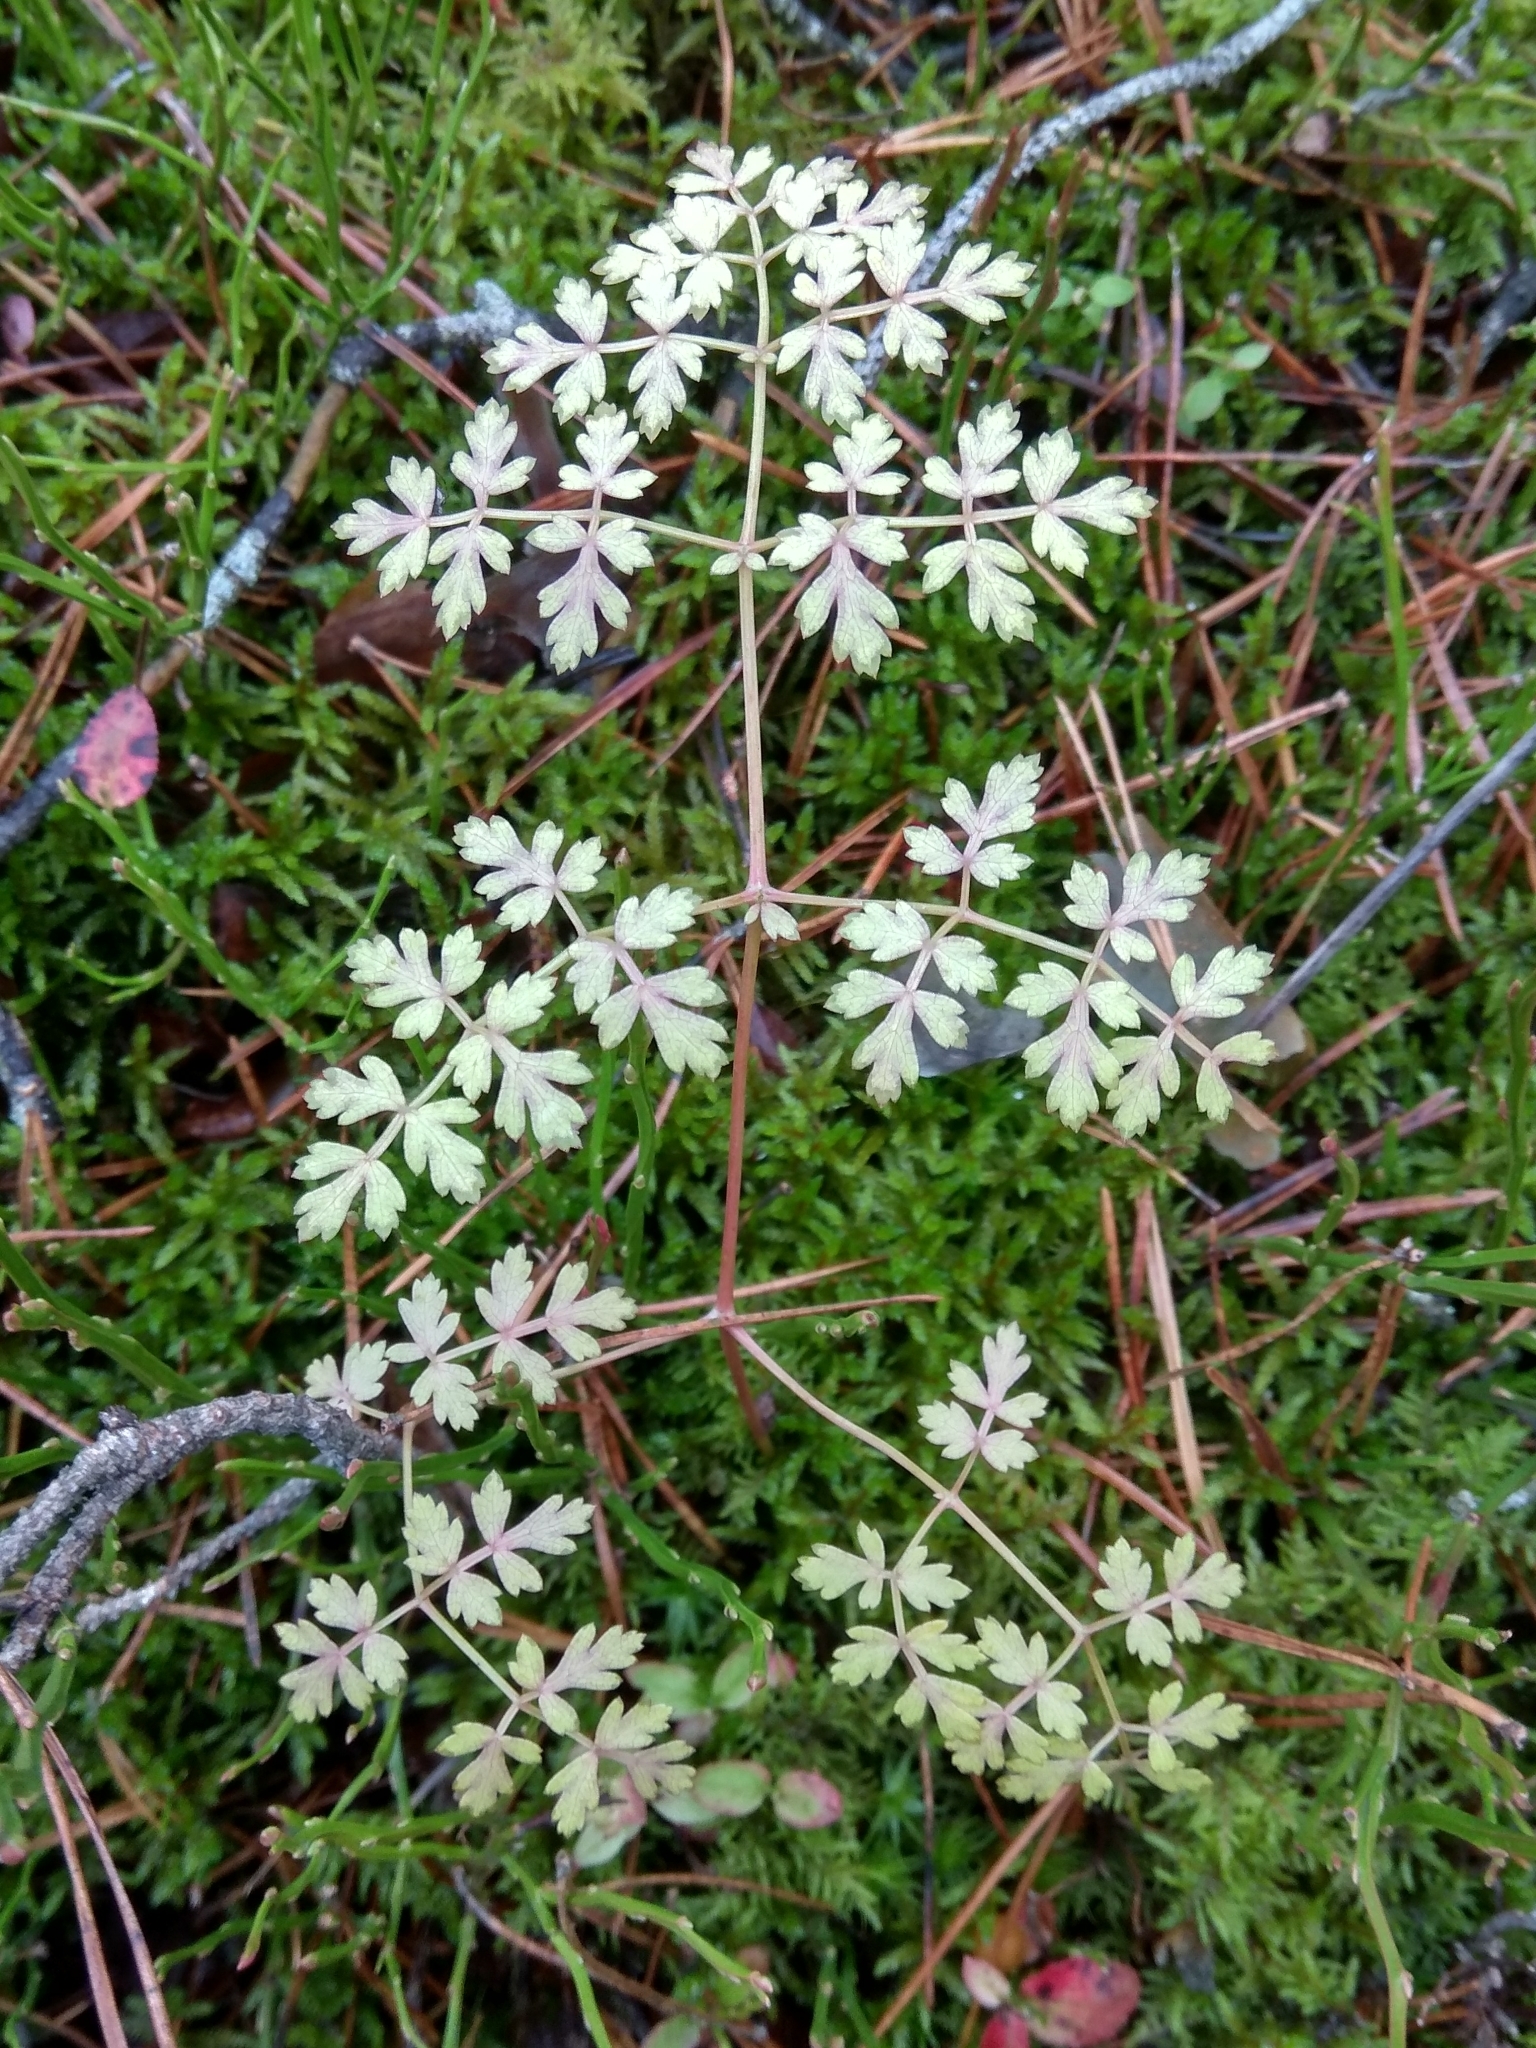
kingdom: Plantae
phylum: Tracheophyta
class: Magnoliopsida
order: Apiales
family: Apiaceae
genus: Oreoselinum
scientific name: Oreoselinum nigrum
